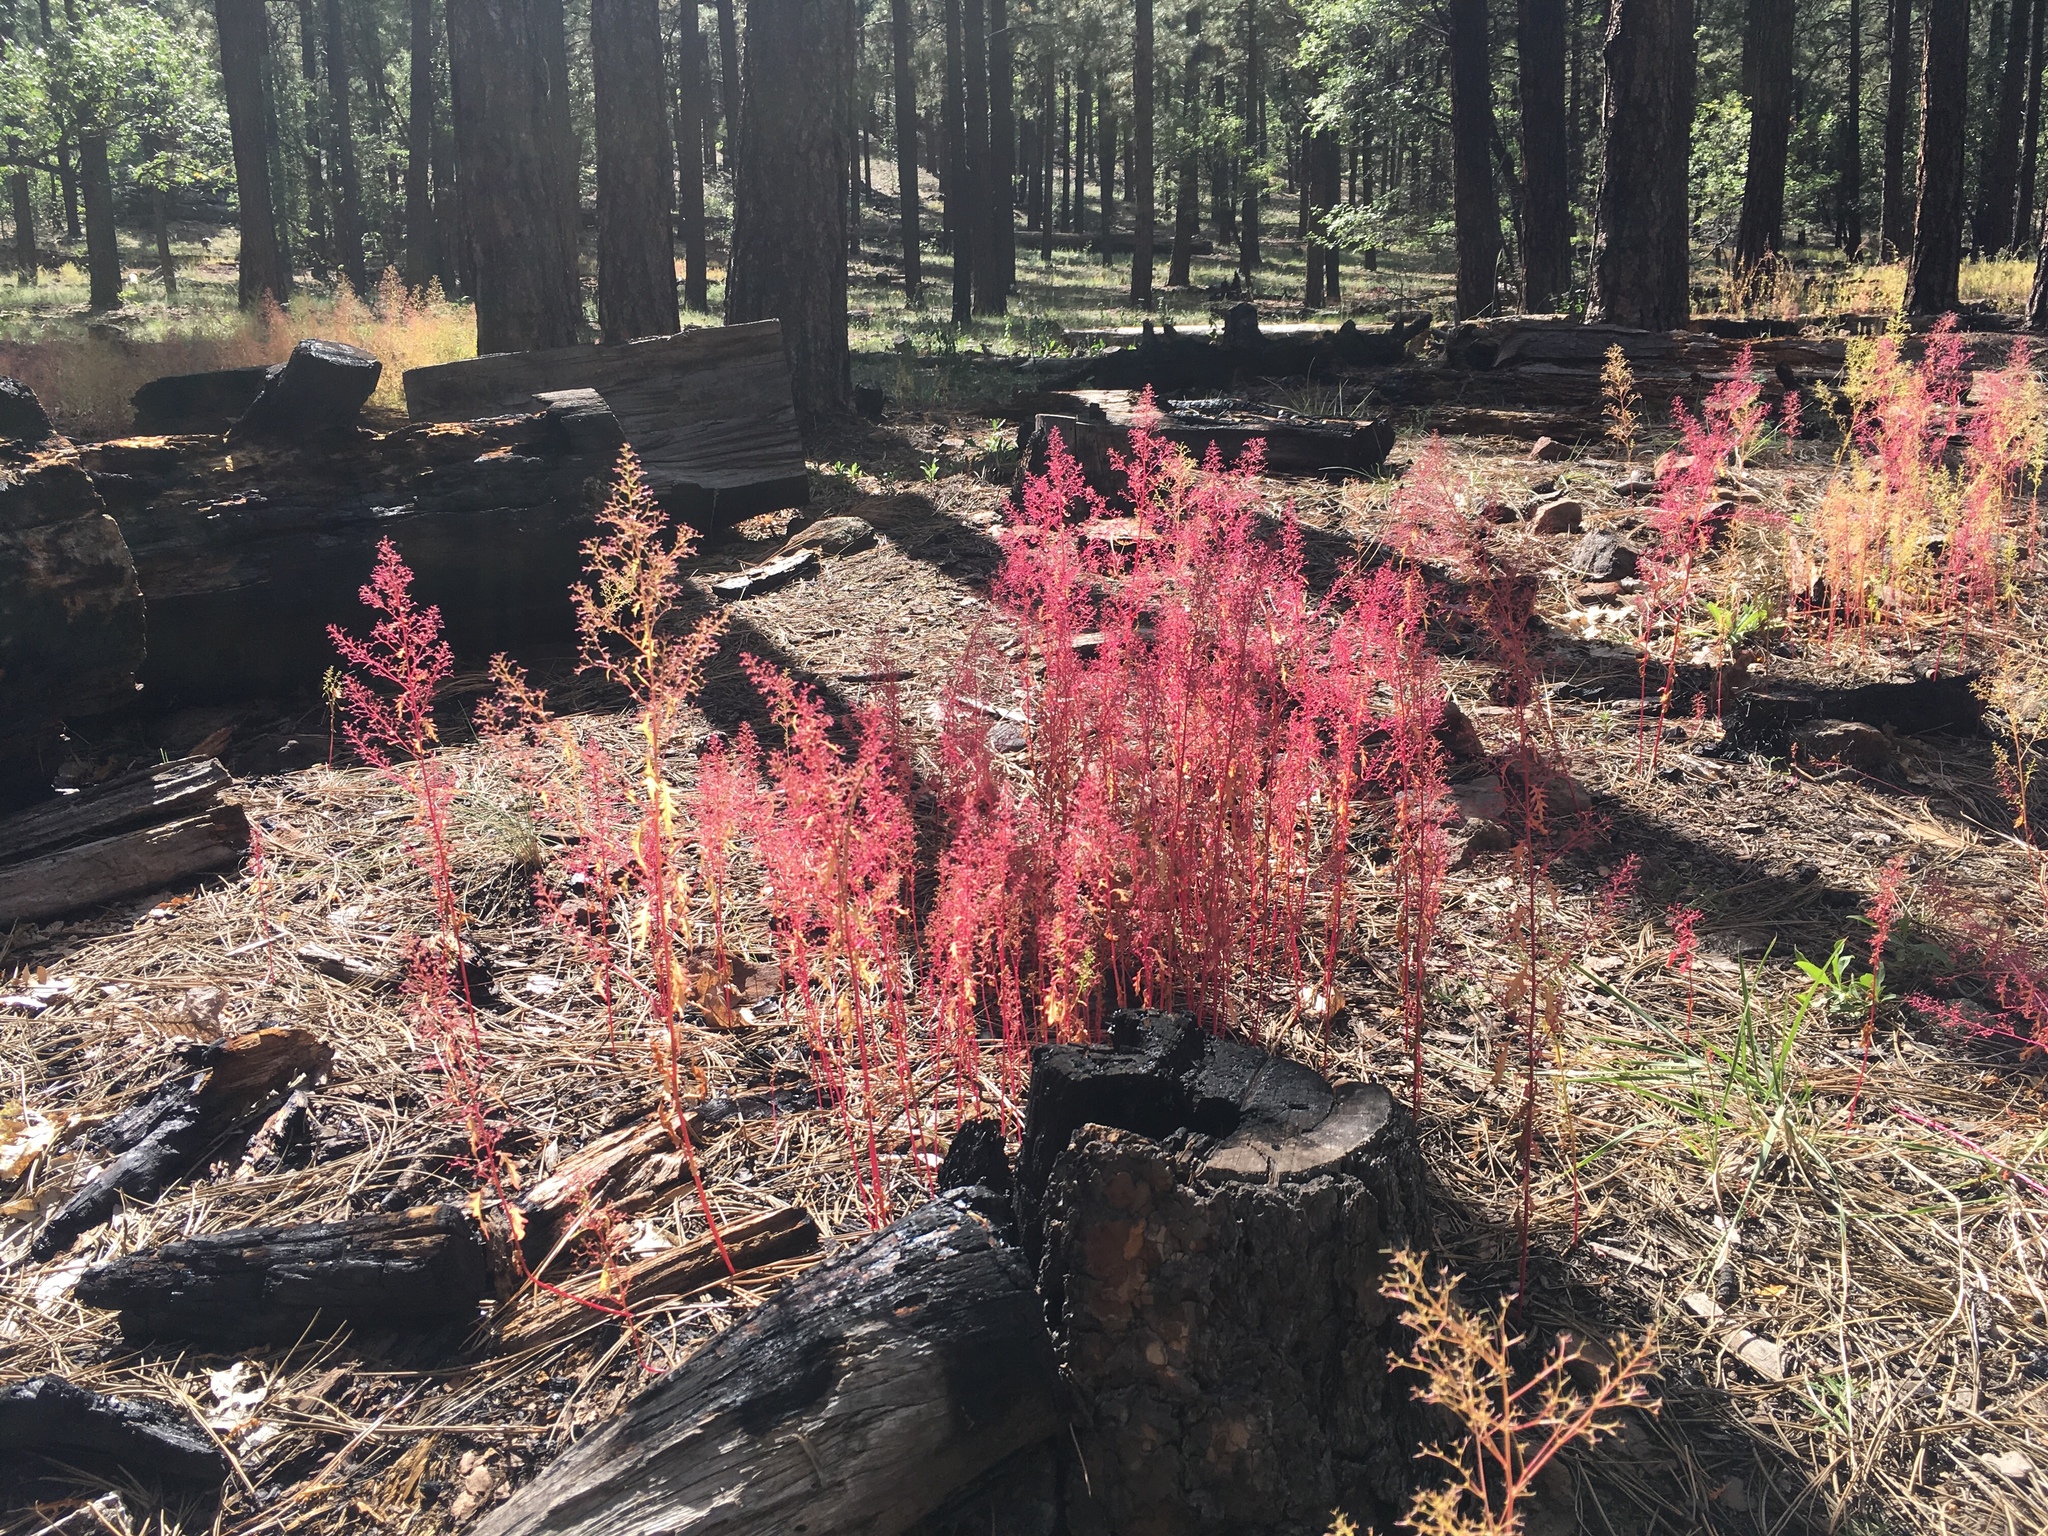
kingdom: Plantae
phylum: Tracheophyta
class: Magnoliopsida
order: Caryophyllales
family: Amaranthaceae
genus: Dysphania
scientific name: Dysphania incisa
